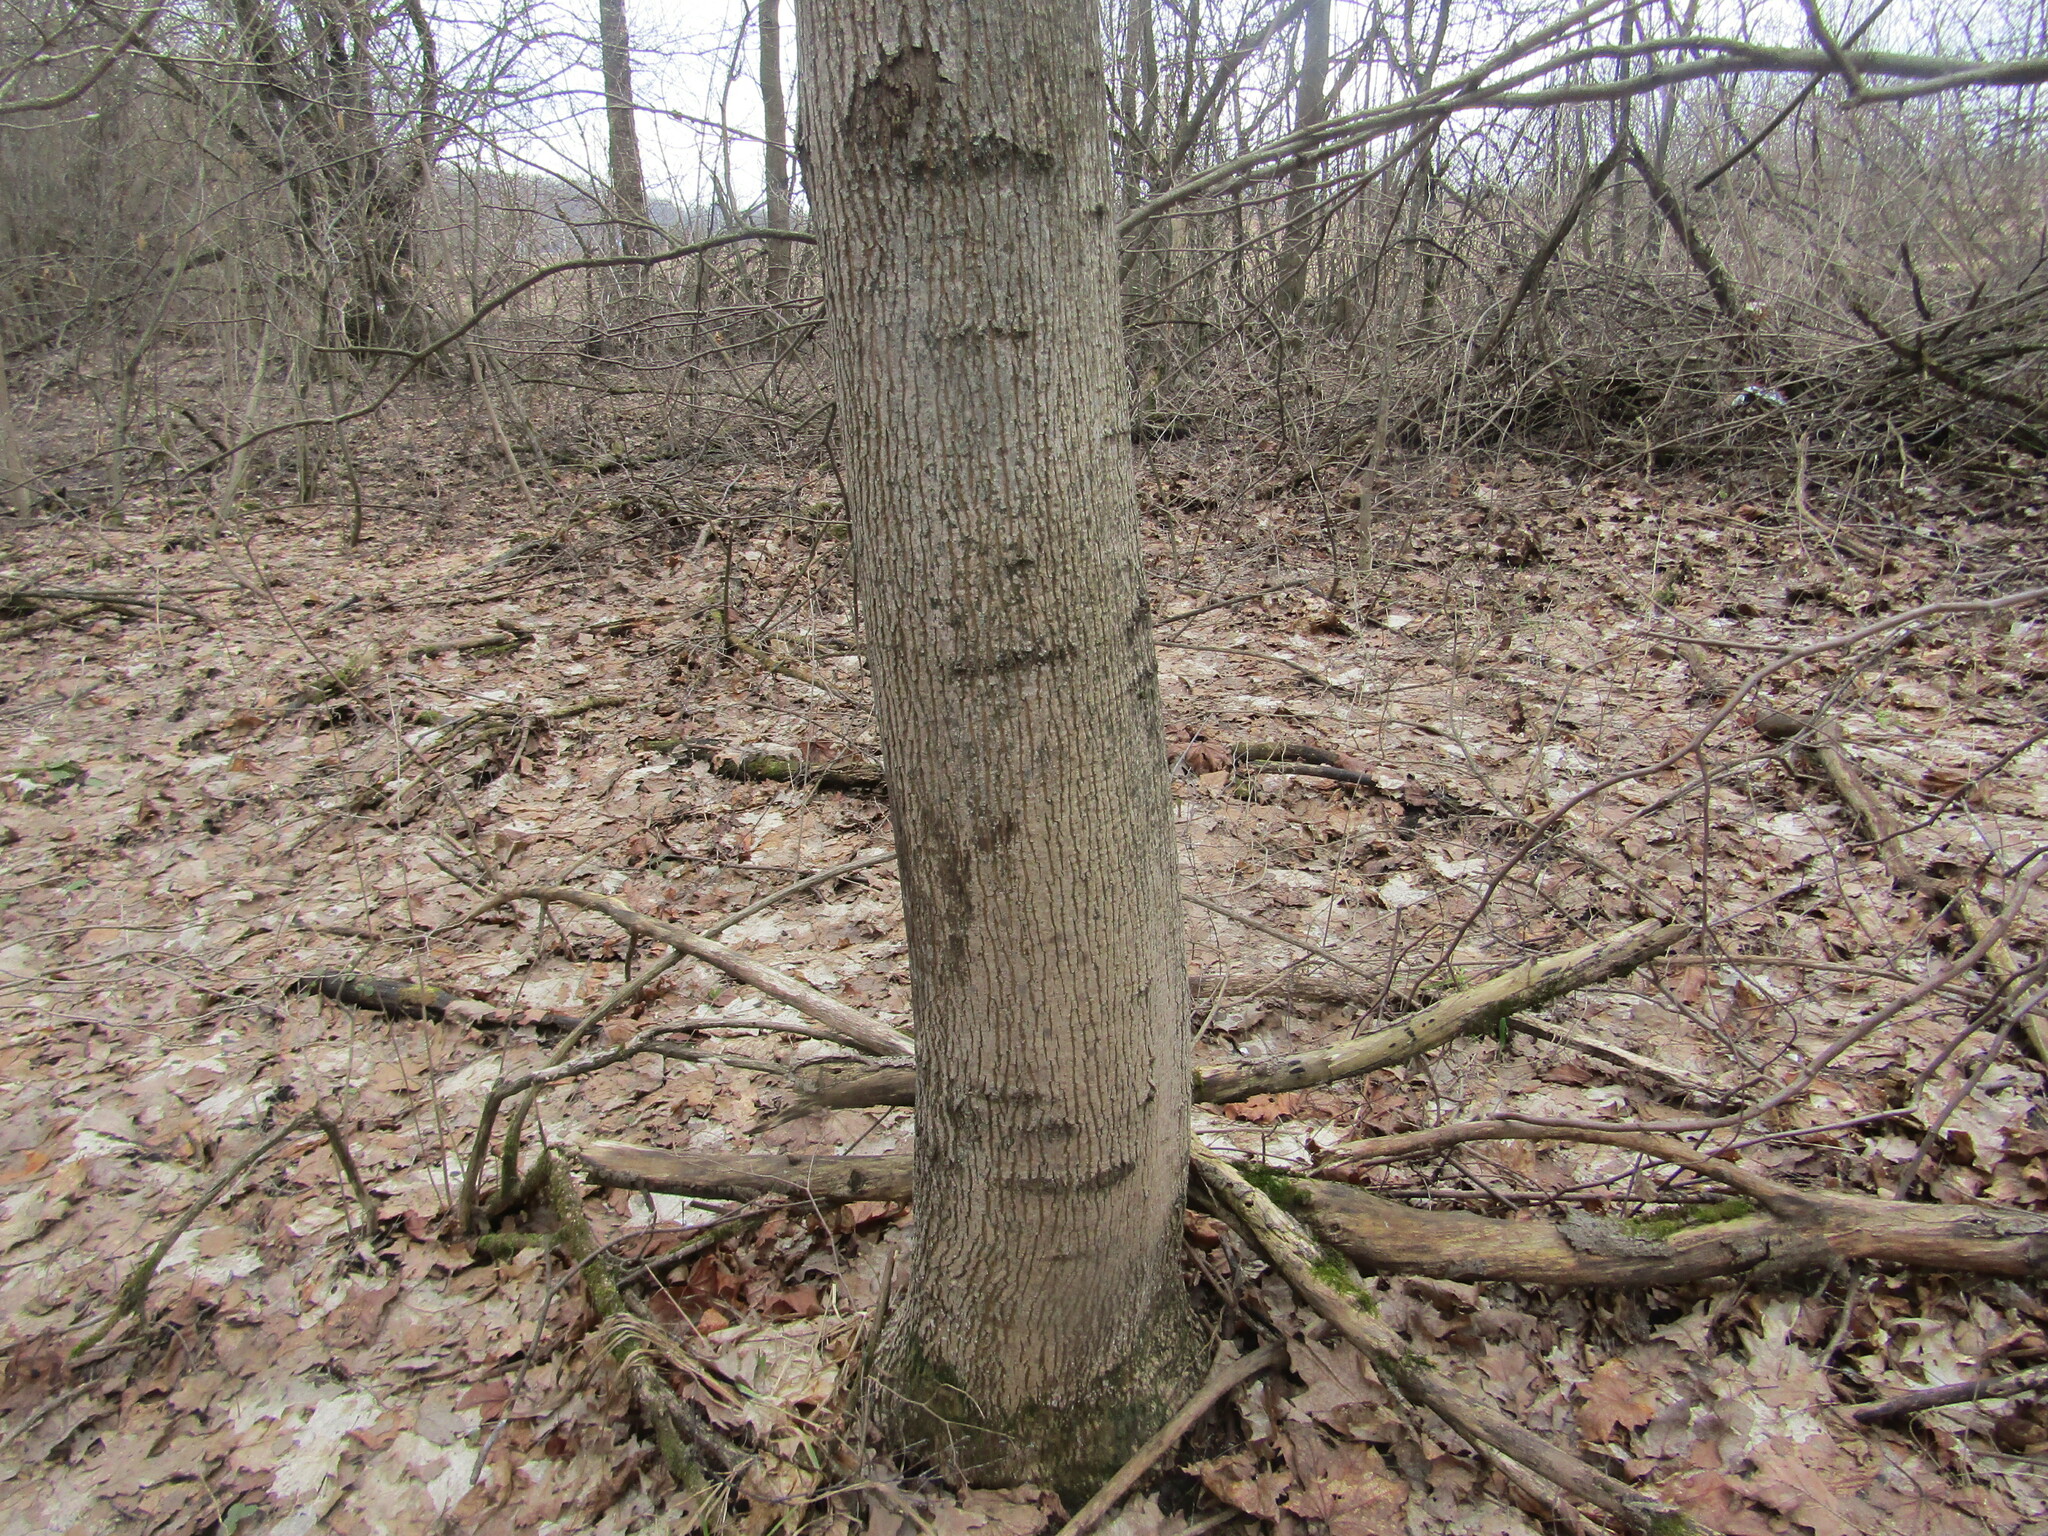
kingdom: Plantae
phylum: Tracheophyta
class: Magnoliopsida
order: Sapindales
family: Sapindaceae
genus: Acer
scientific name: Acer platanoides
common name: Norway maple
